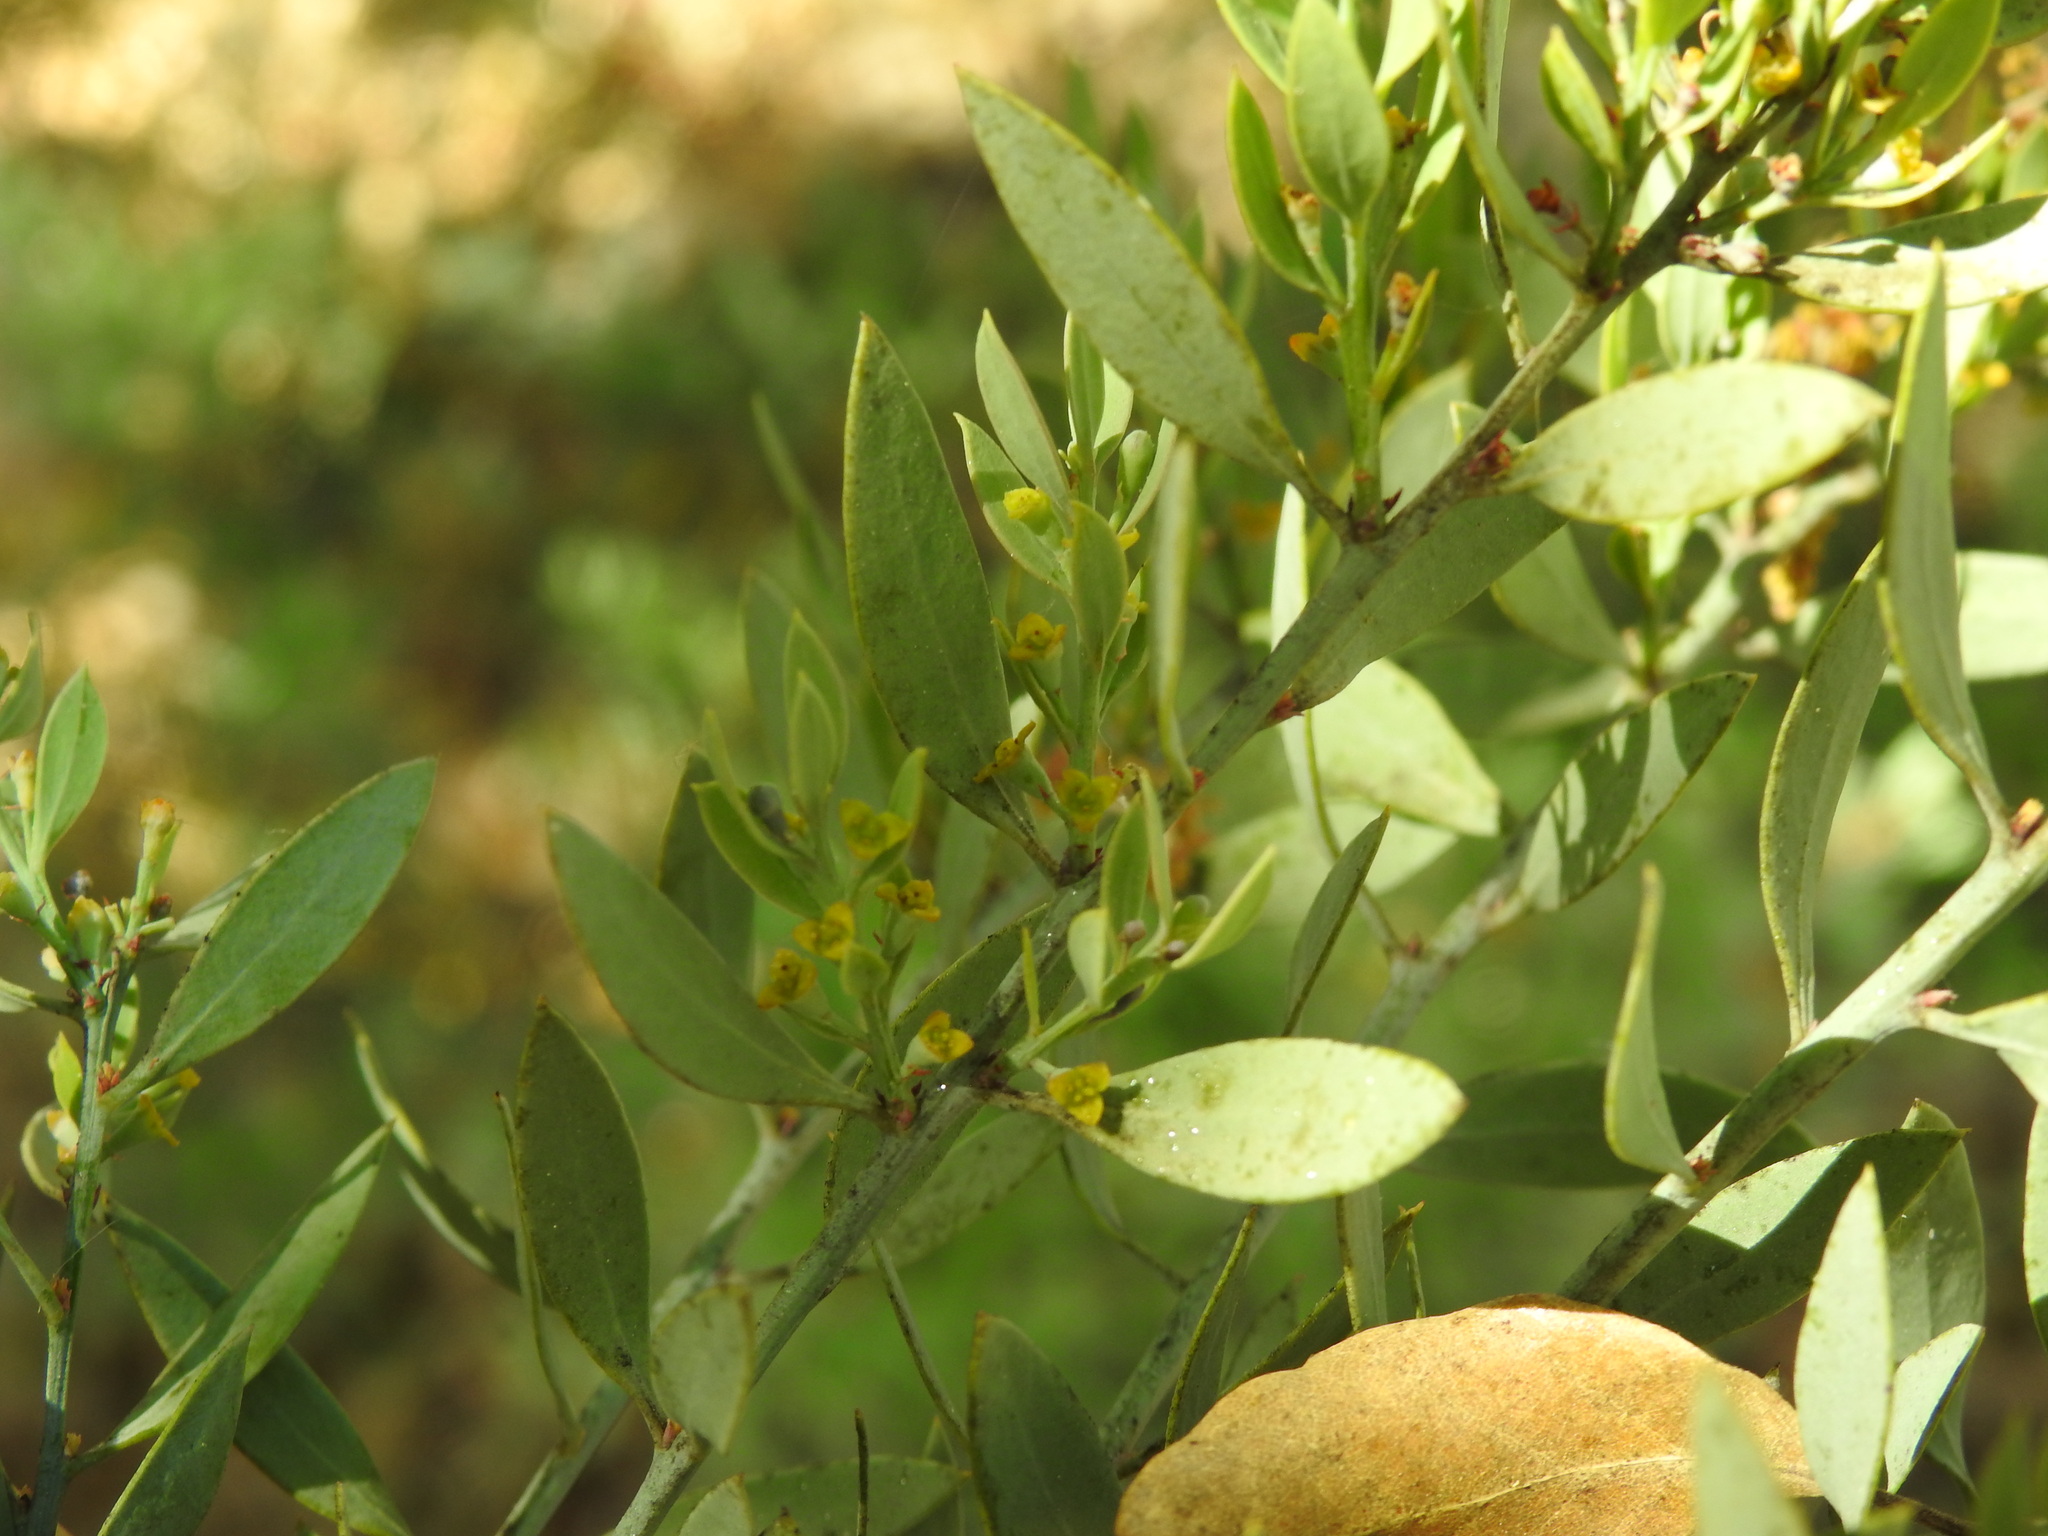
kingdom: Plantae
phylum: Tracheophyta
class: Magnoliopsida
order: Santalales
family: Santalaceae
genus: Osyris
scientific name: Osyris lanceolata
